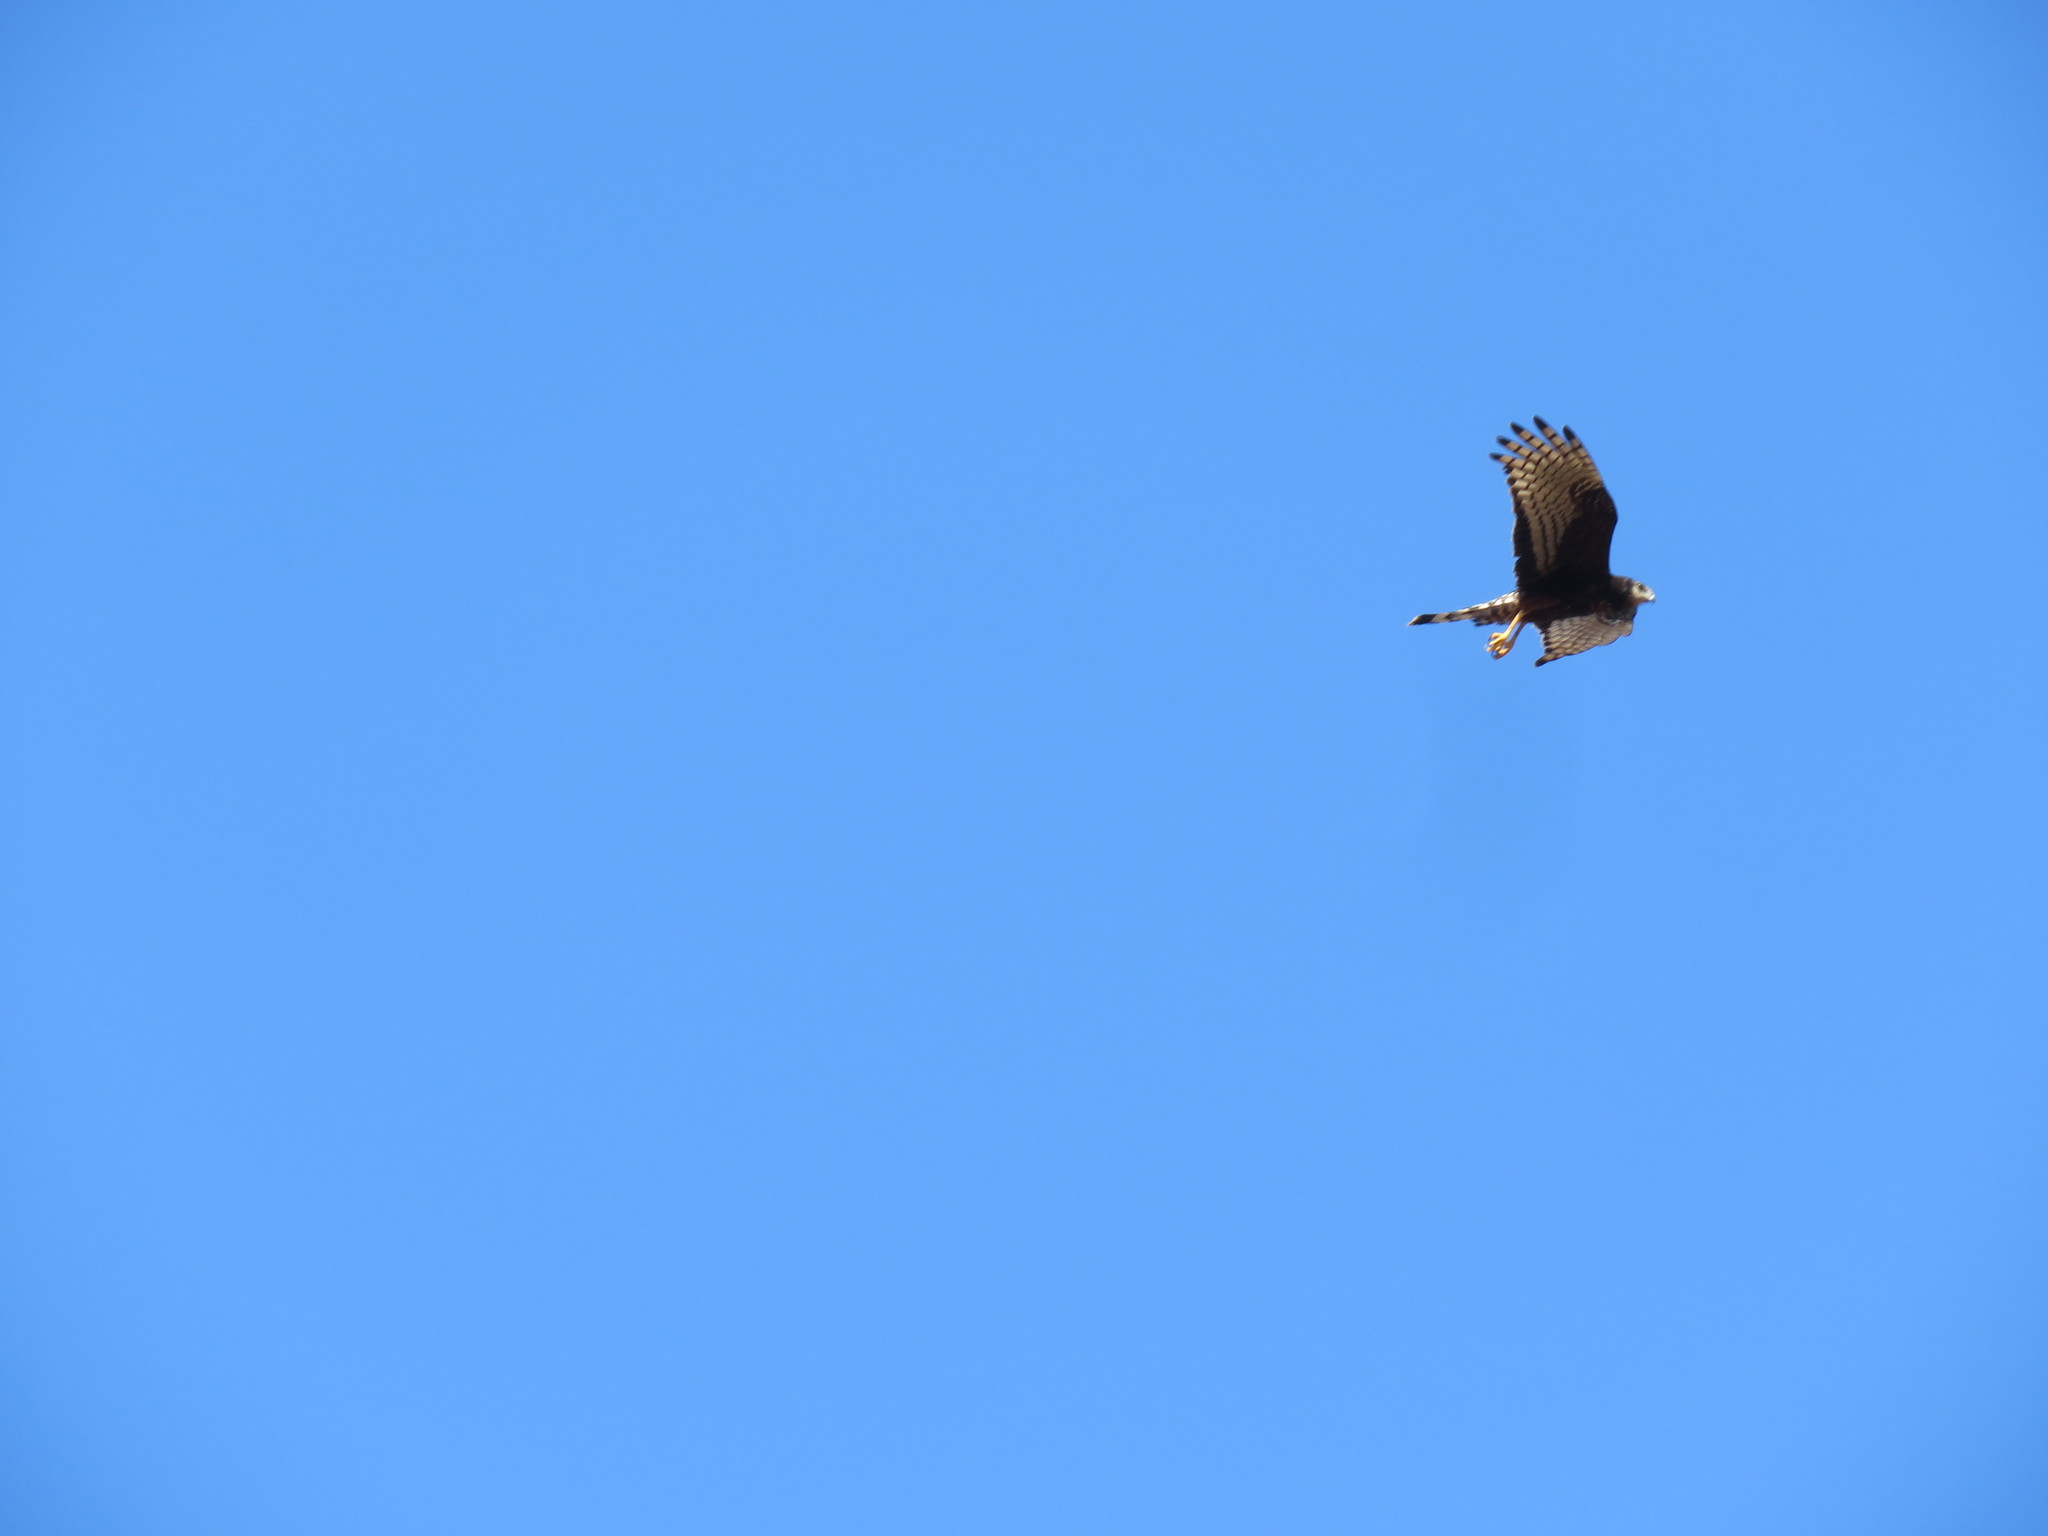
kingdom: Animalia
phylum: Chordata
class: Aves
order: Accipitriformes
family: Accipitridae
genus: Circus
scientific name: Circus buffoni
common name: Long-winged harrier
